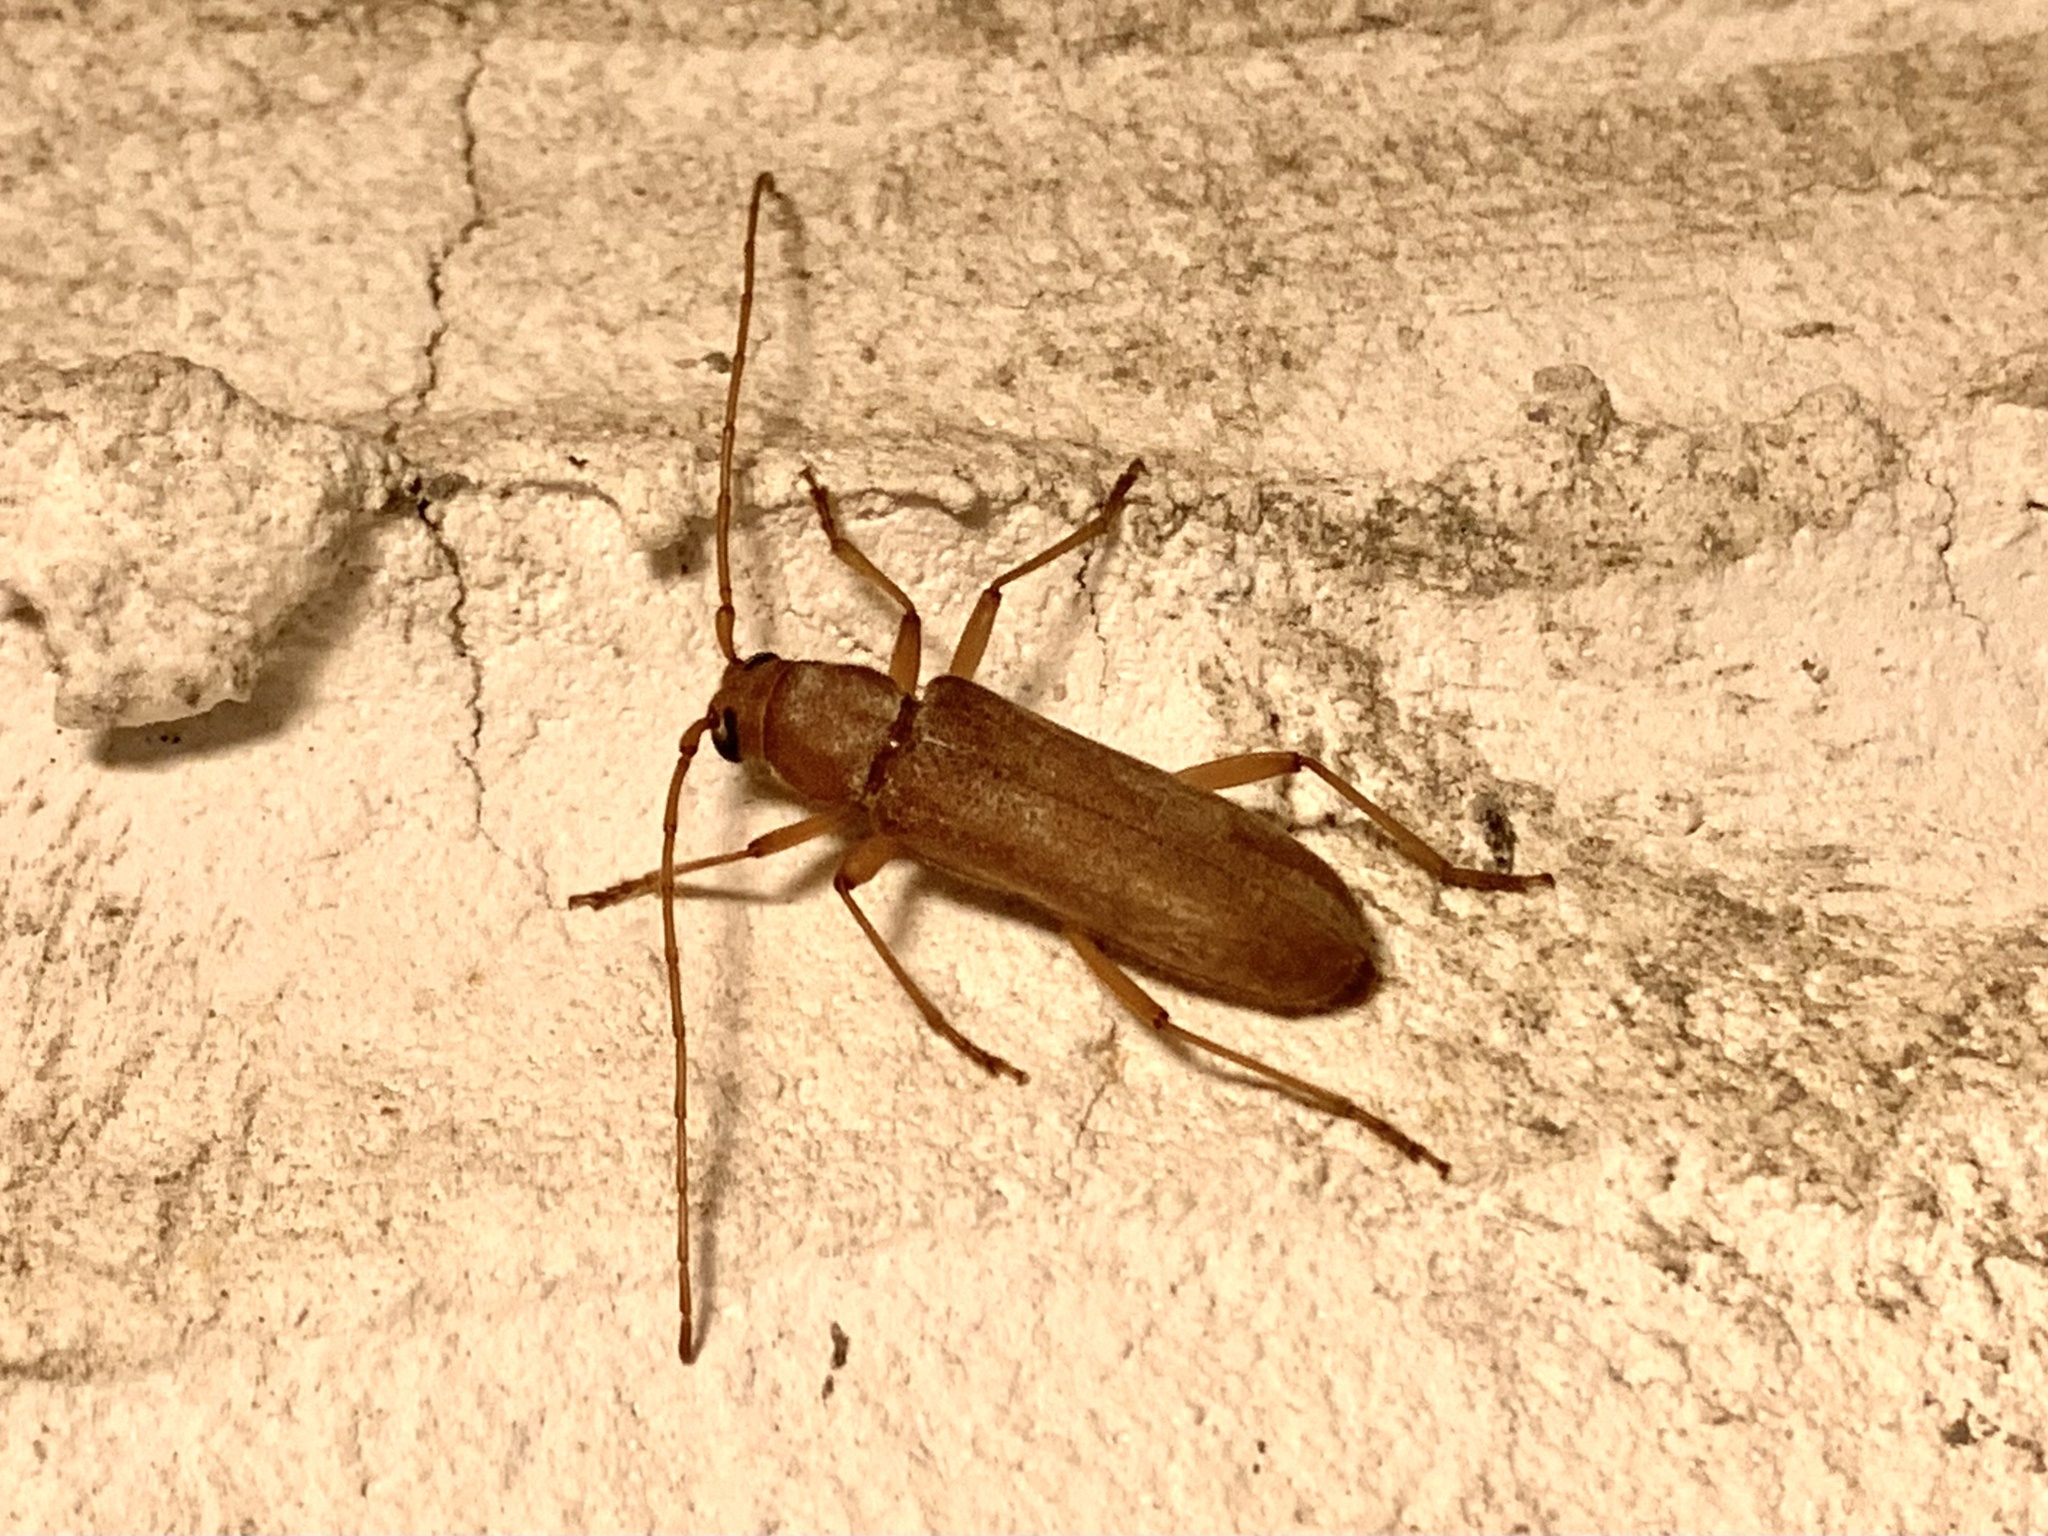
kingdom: Animalia
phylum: Arthropoda
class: Insecta
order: Coleoptera
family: Cerambycidae
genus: Stromatium
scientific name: Stromatium auratum
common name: Long-horned beetle
